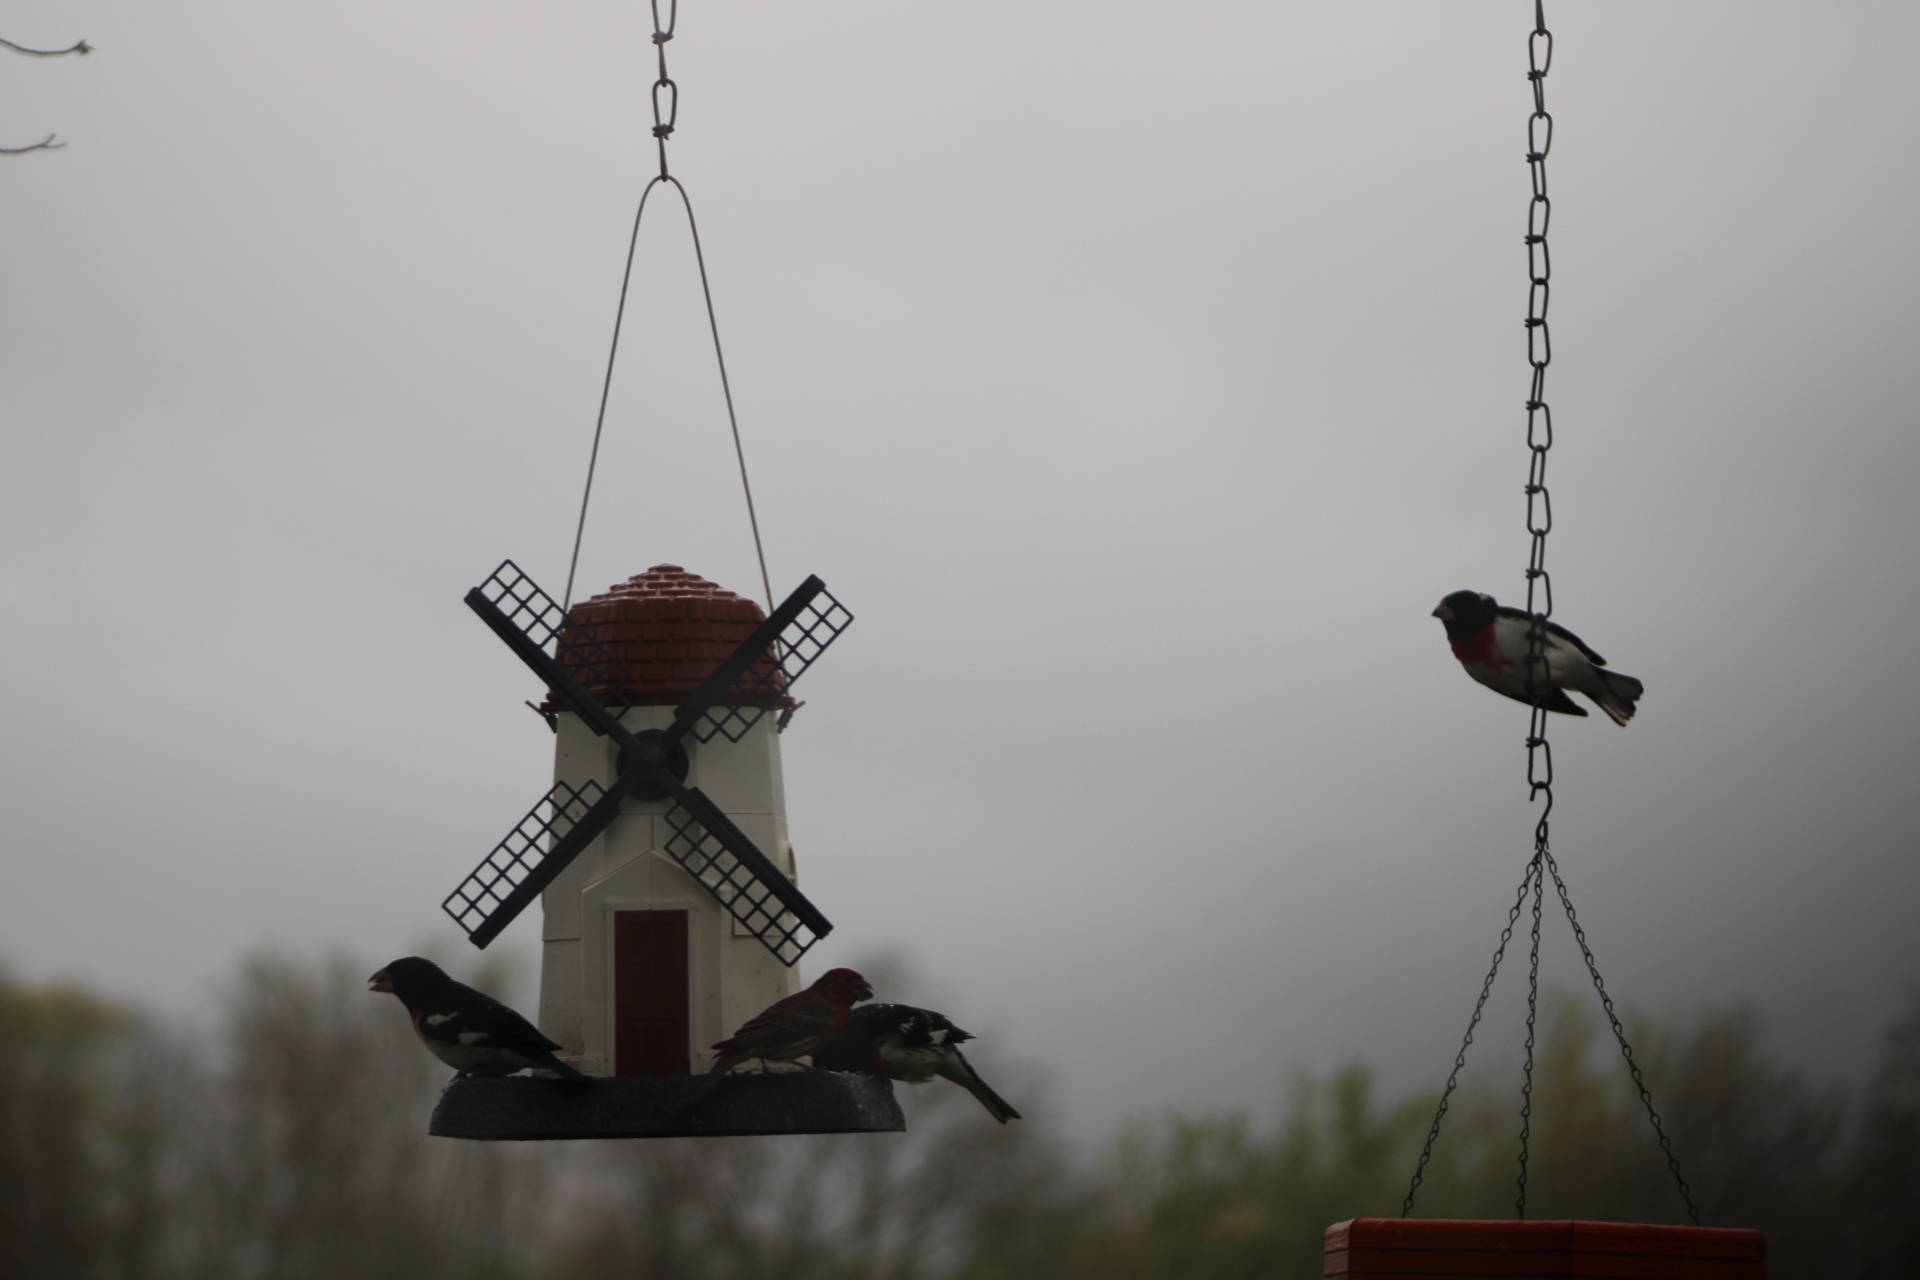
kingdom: Animalia
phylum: Chordata
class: Aves
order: Passeriformes
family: Cardinalidae
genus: Pheucticus
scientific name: Pheucticus ludovicianus
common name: Rose-breasted grosbeak
